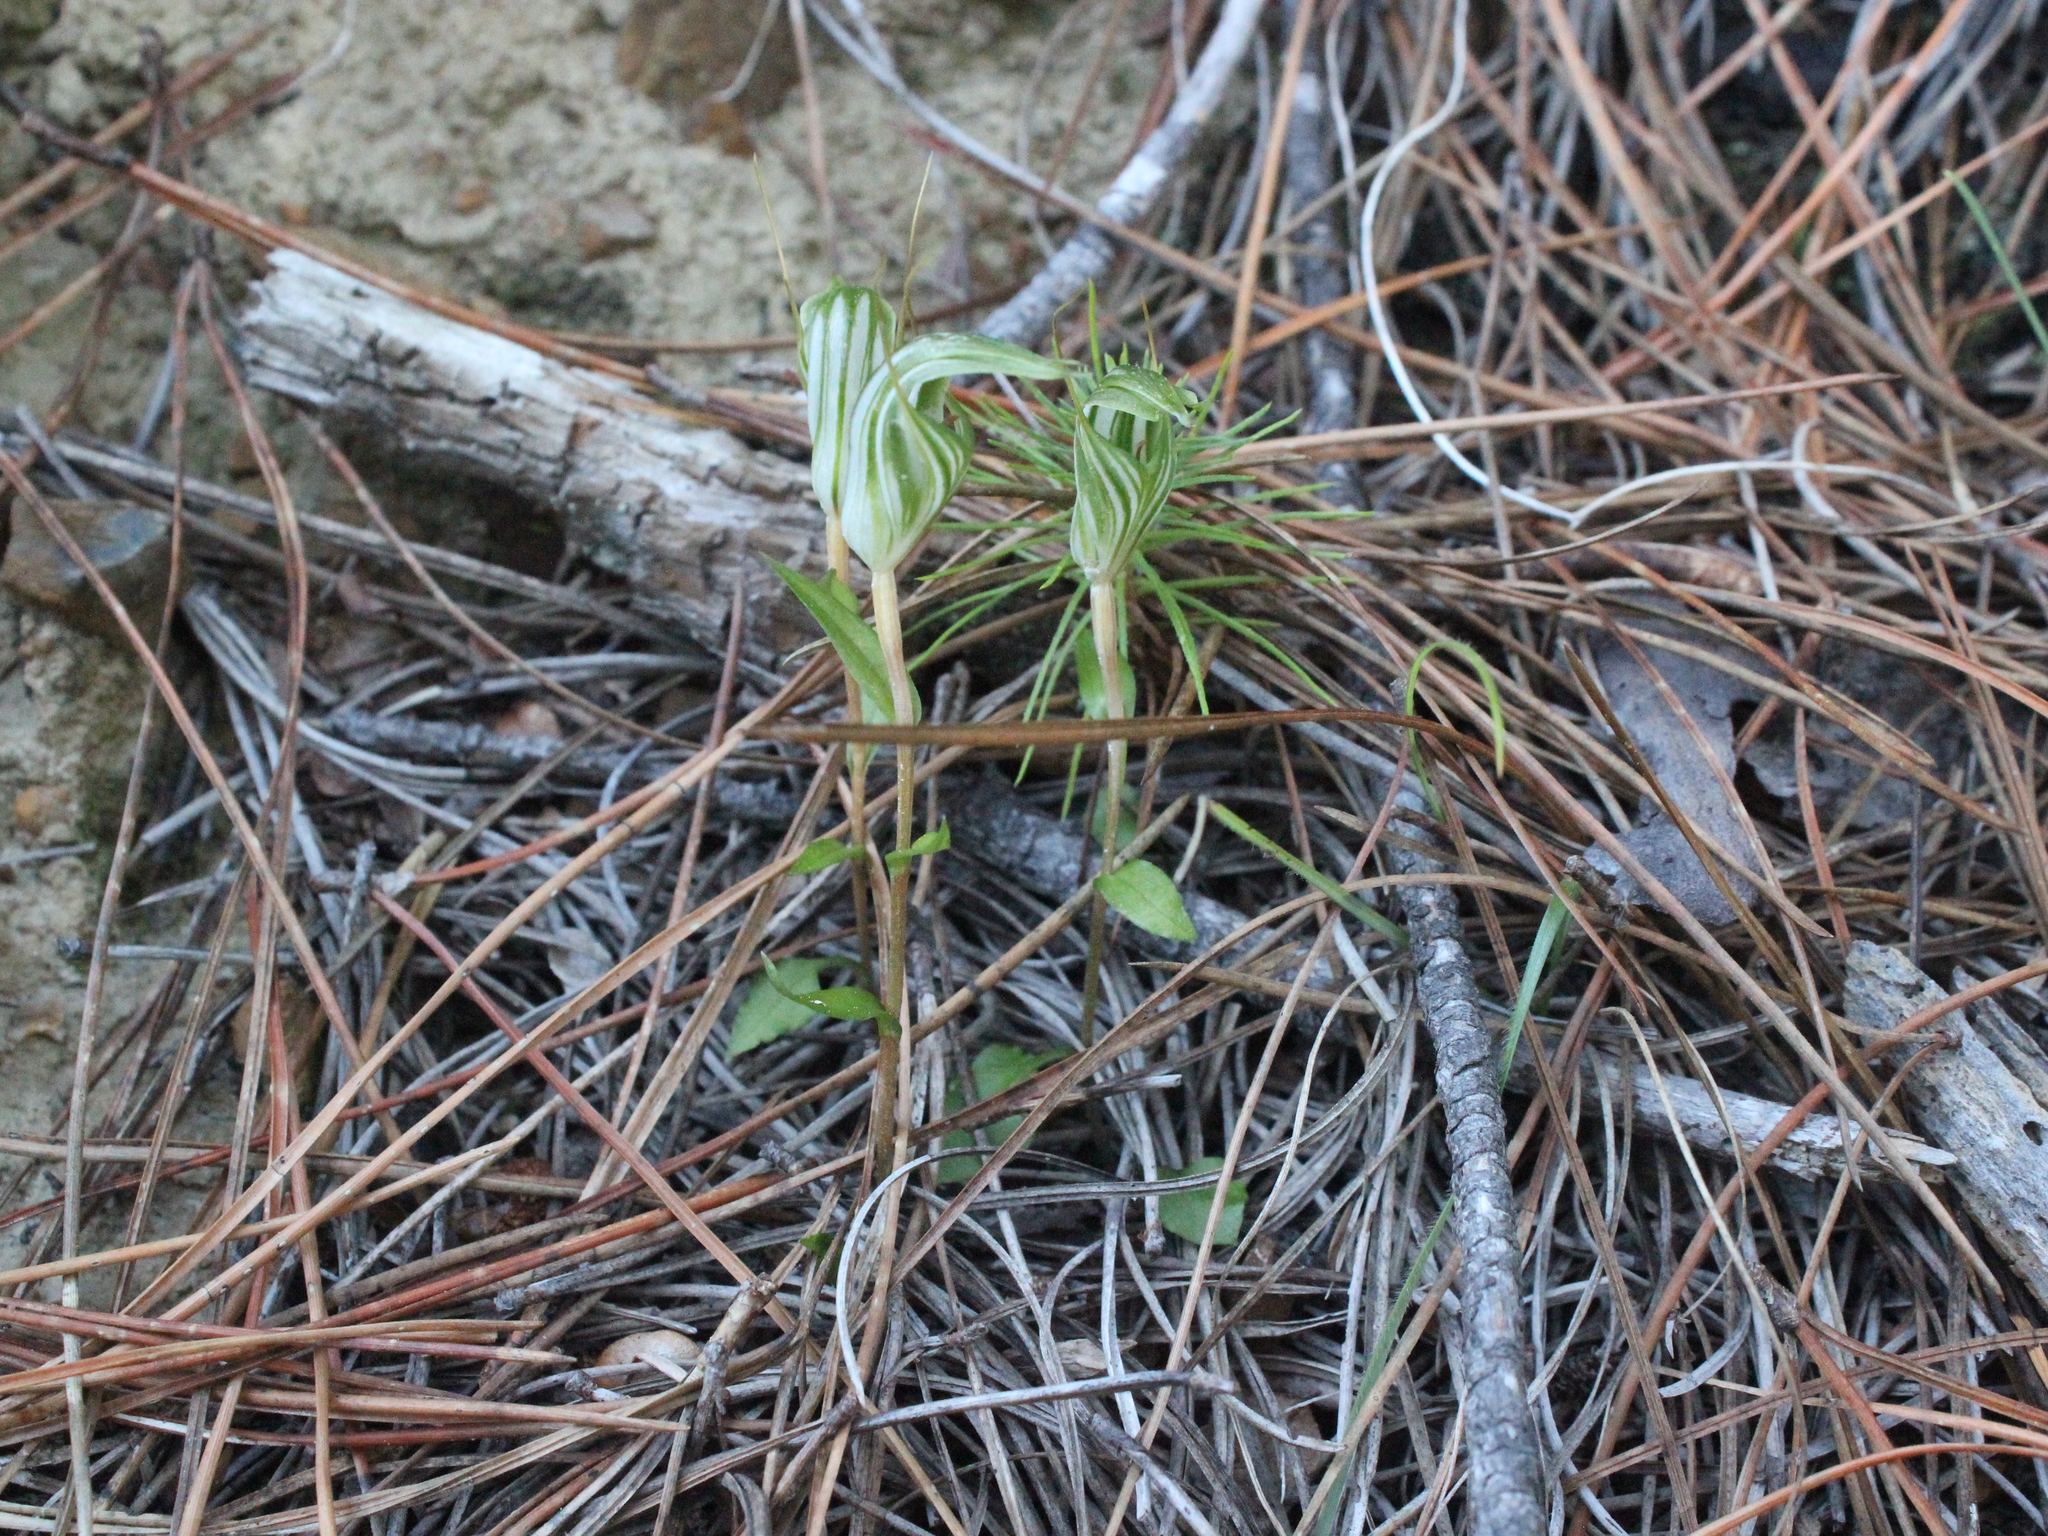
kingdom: Plantae
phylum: Tracheophyta
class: Liliopsida
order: Asparagales
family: Orchidaceae
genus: Pterostylis
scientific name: Pterostylis alobula
